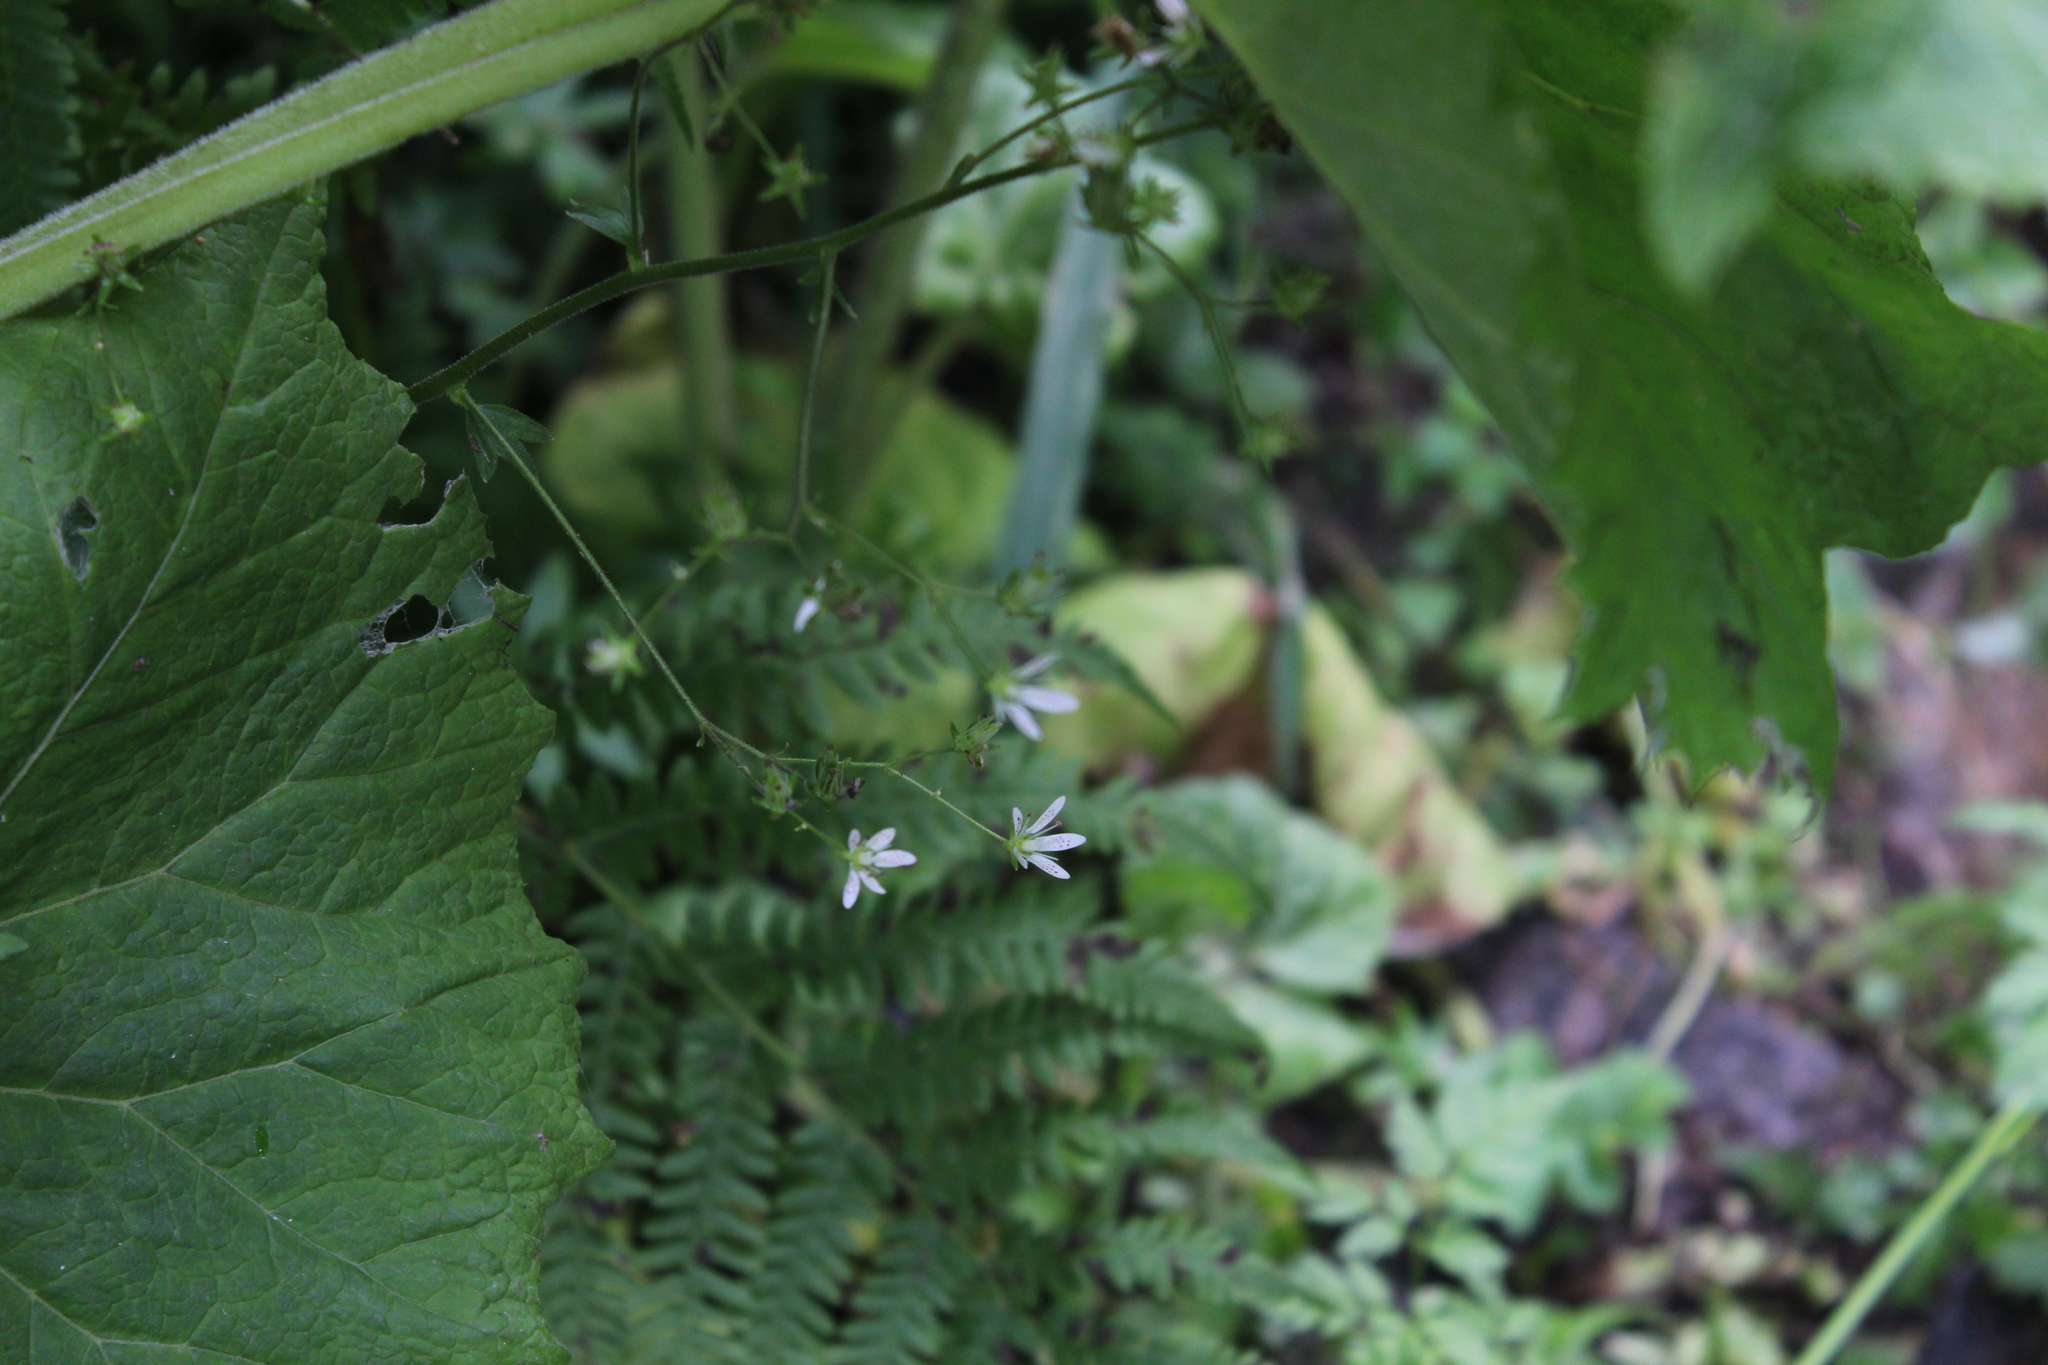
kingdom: Plantae
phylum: Tracheophyta
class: Magnoliopsida
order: Saxifragales
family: Saxifragaceae
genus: Saxifraga
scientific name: Saxifraga rotundifolia
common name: Round-leaved saxifrage
